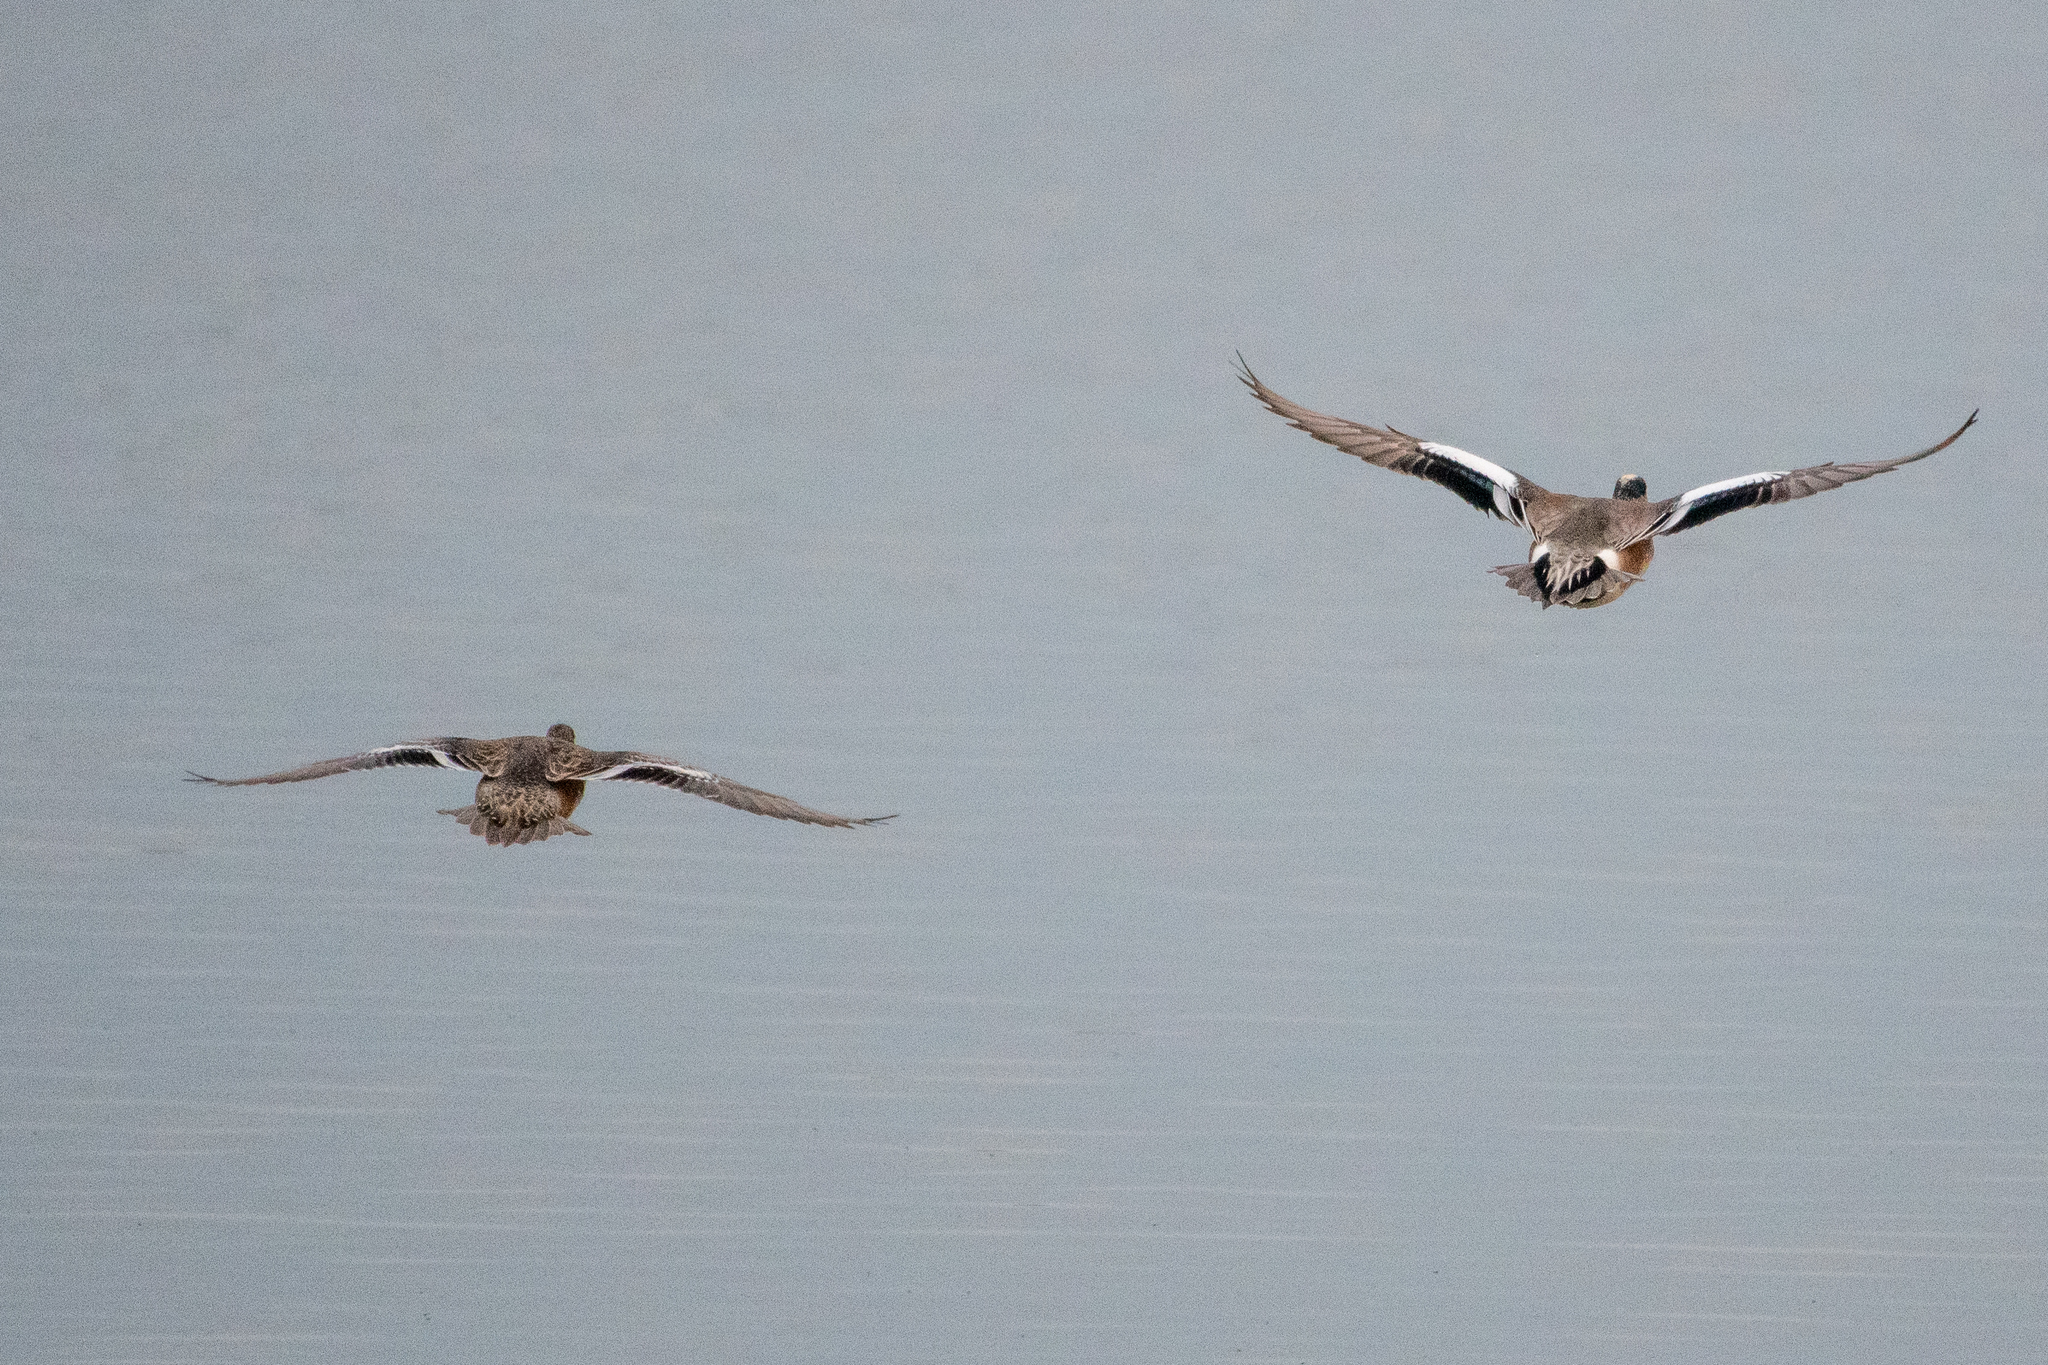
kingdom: Animalia
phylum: Chordata
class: Aves
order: Anseriformes
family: Anatidae
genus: Mareca
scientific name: Mareca americana
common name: American wigeon
